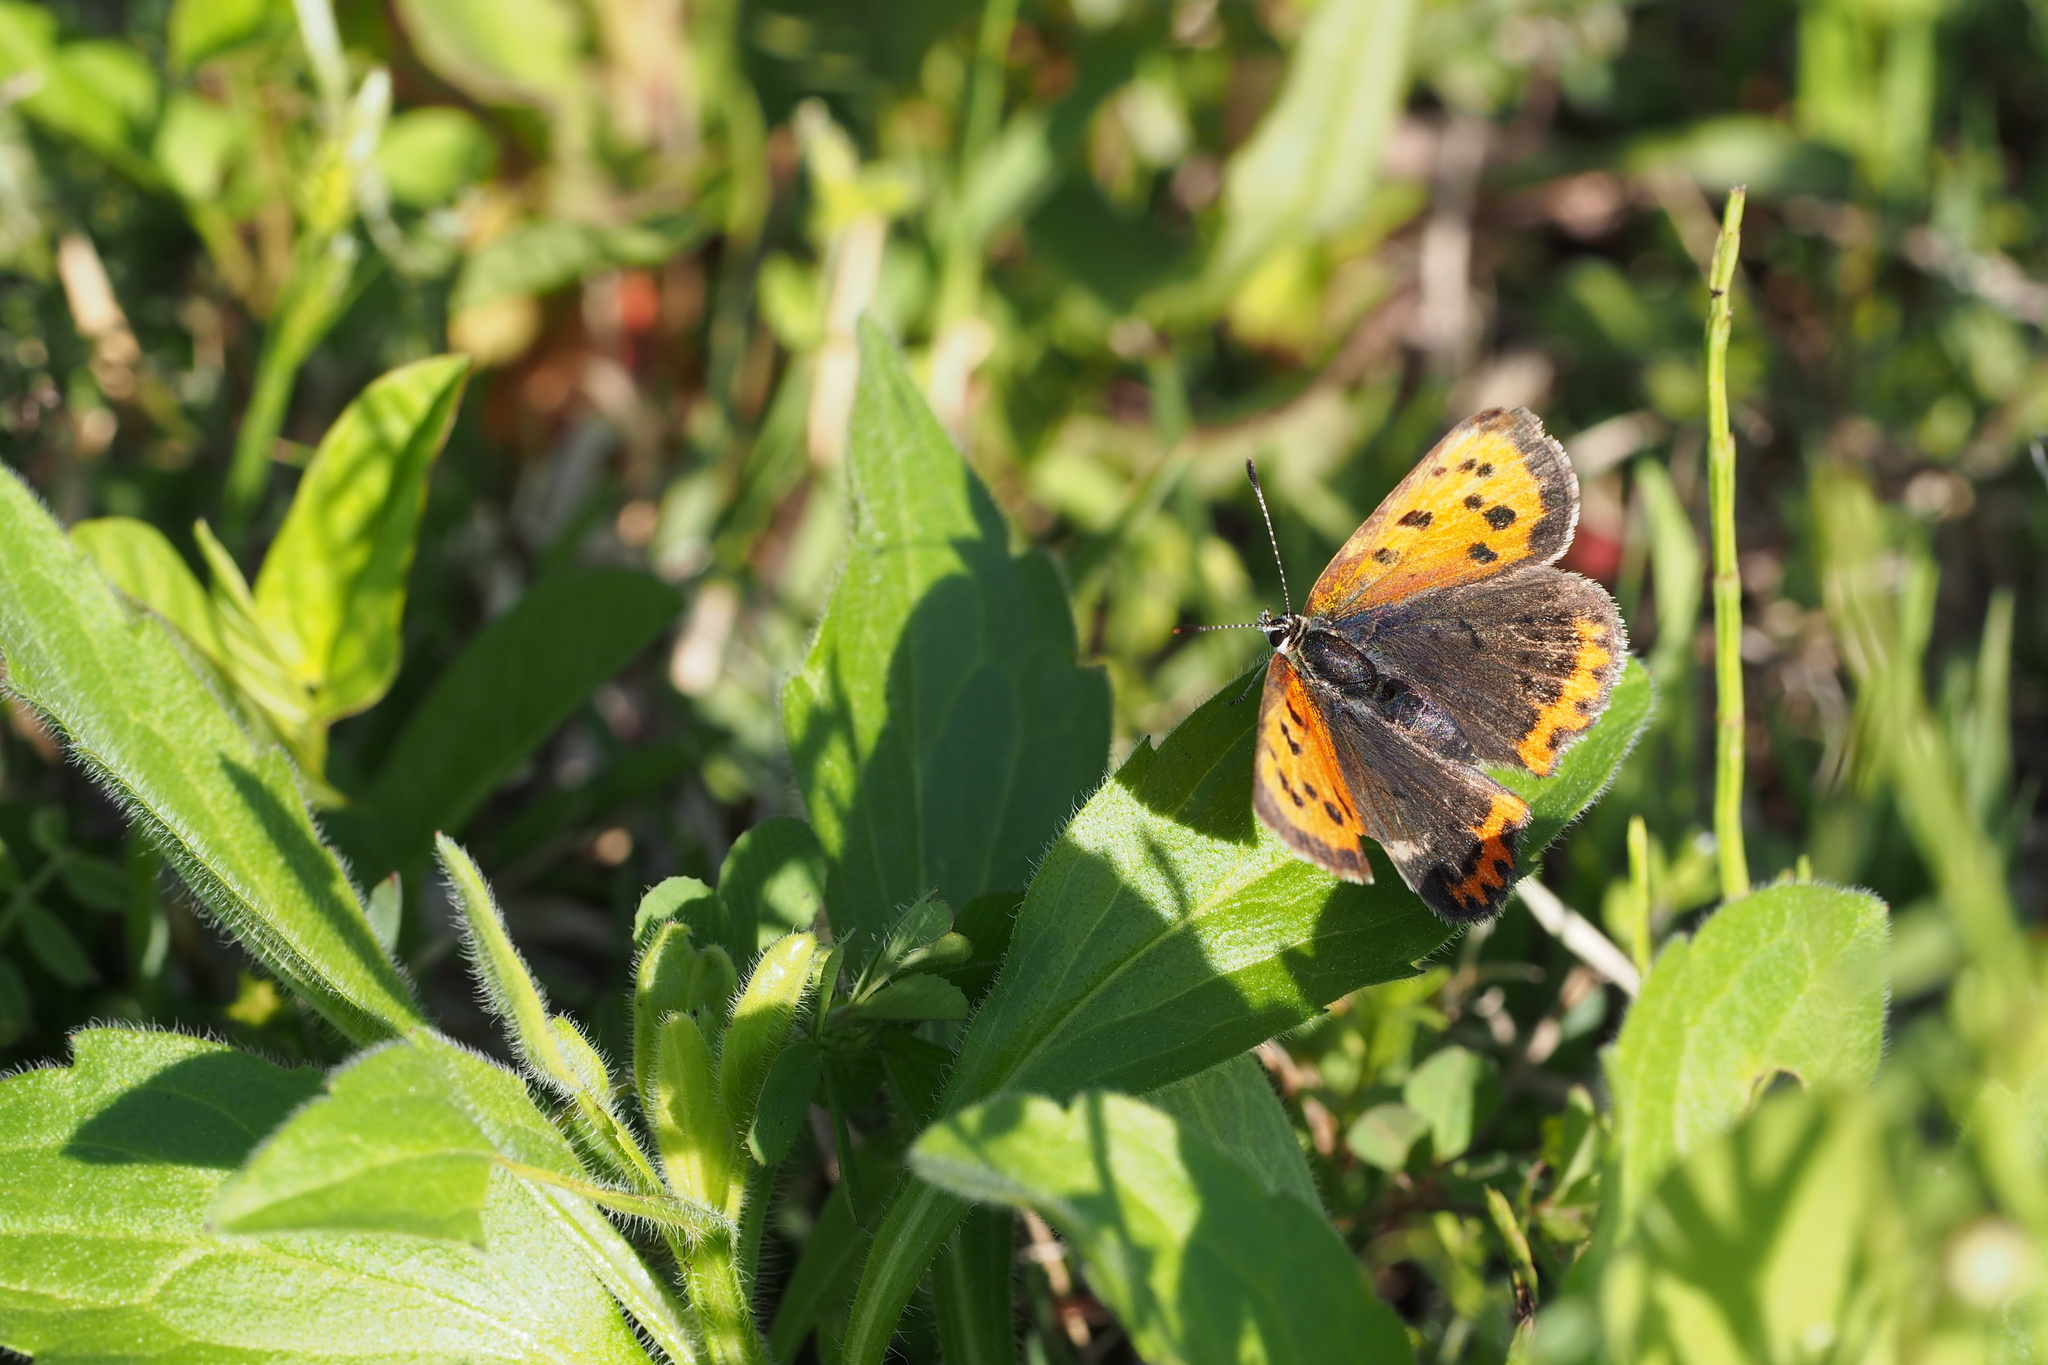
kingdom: Animalia
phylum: Arthropoda
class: Insecta
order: Lepidoptera
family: Lycaenidae
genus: Lycaena
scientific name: Lycaena phlaeas
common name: Small copper
